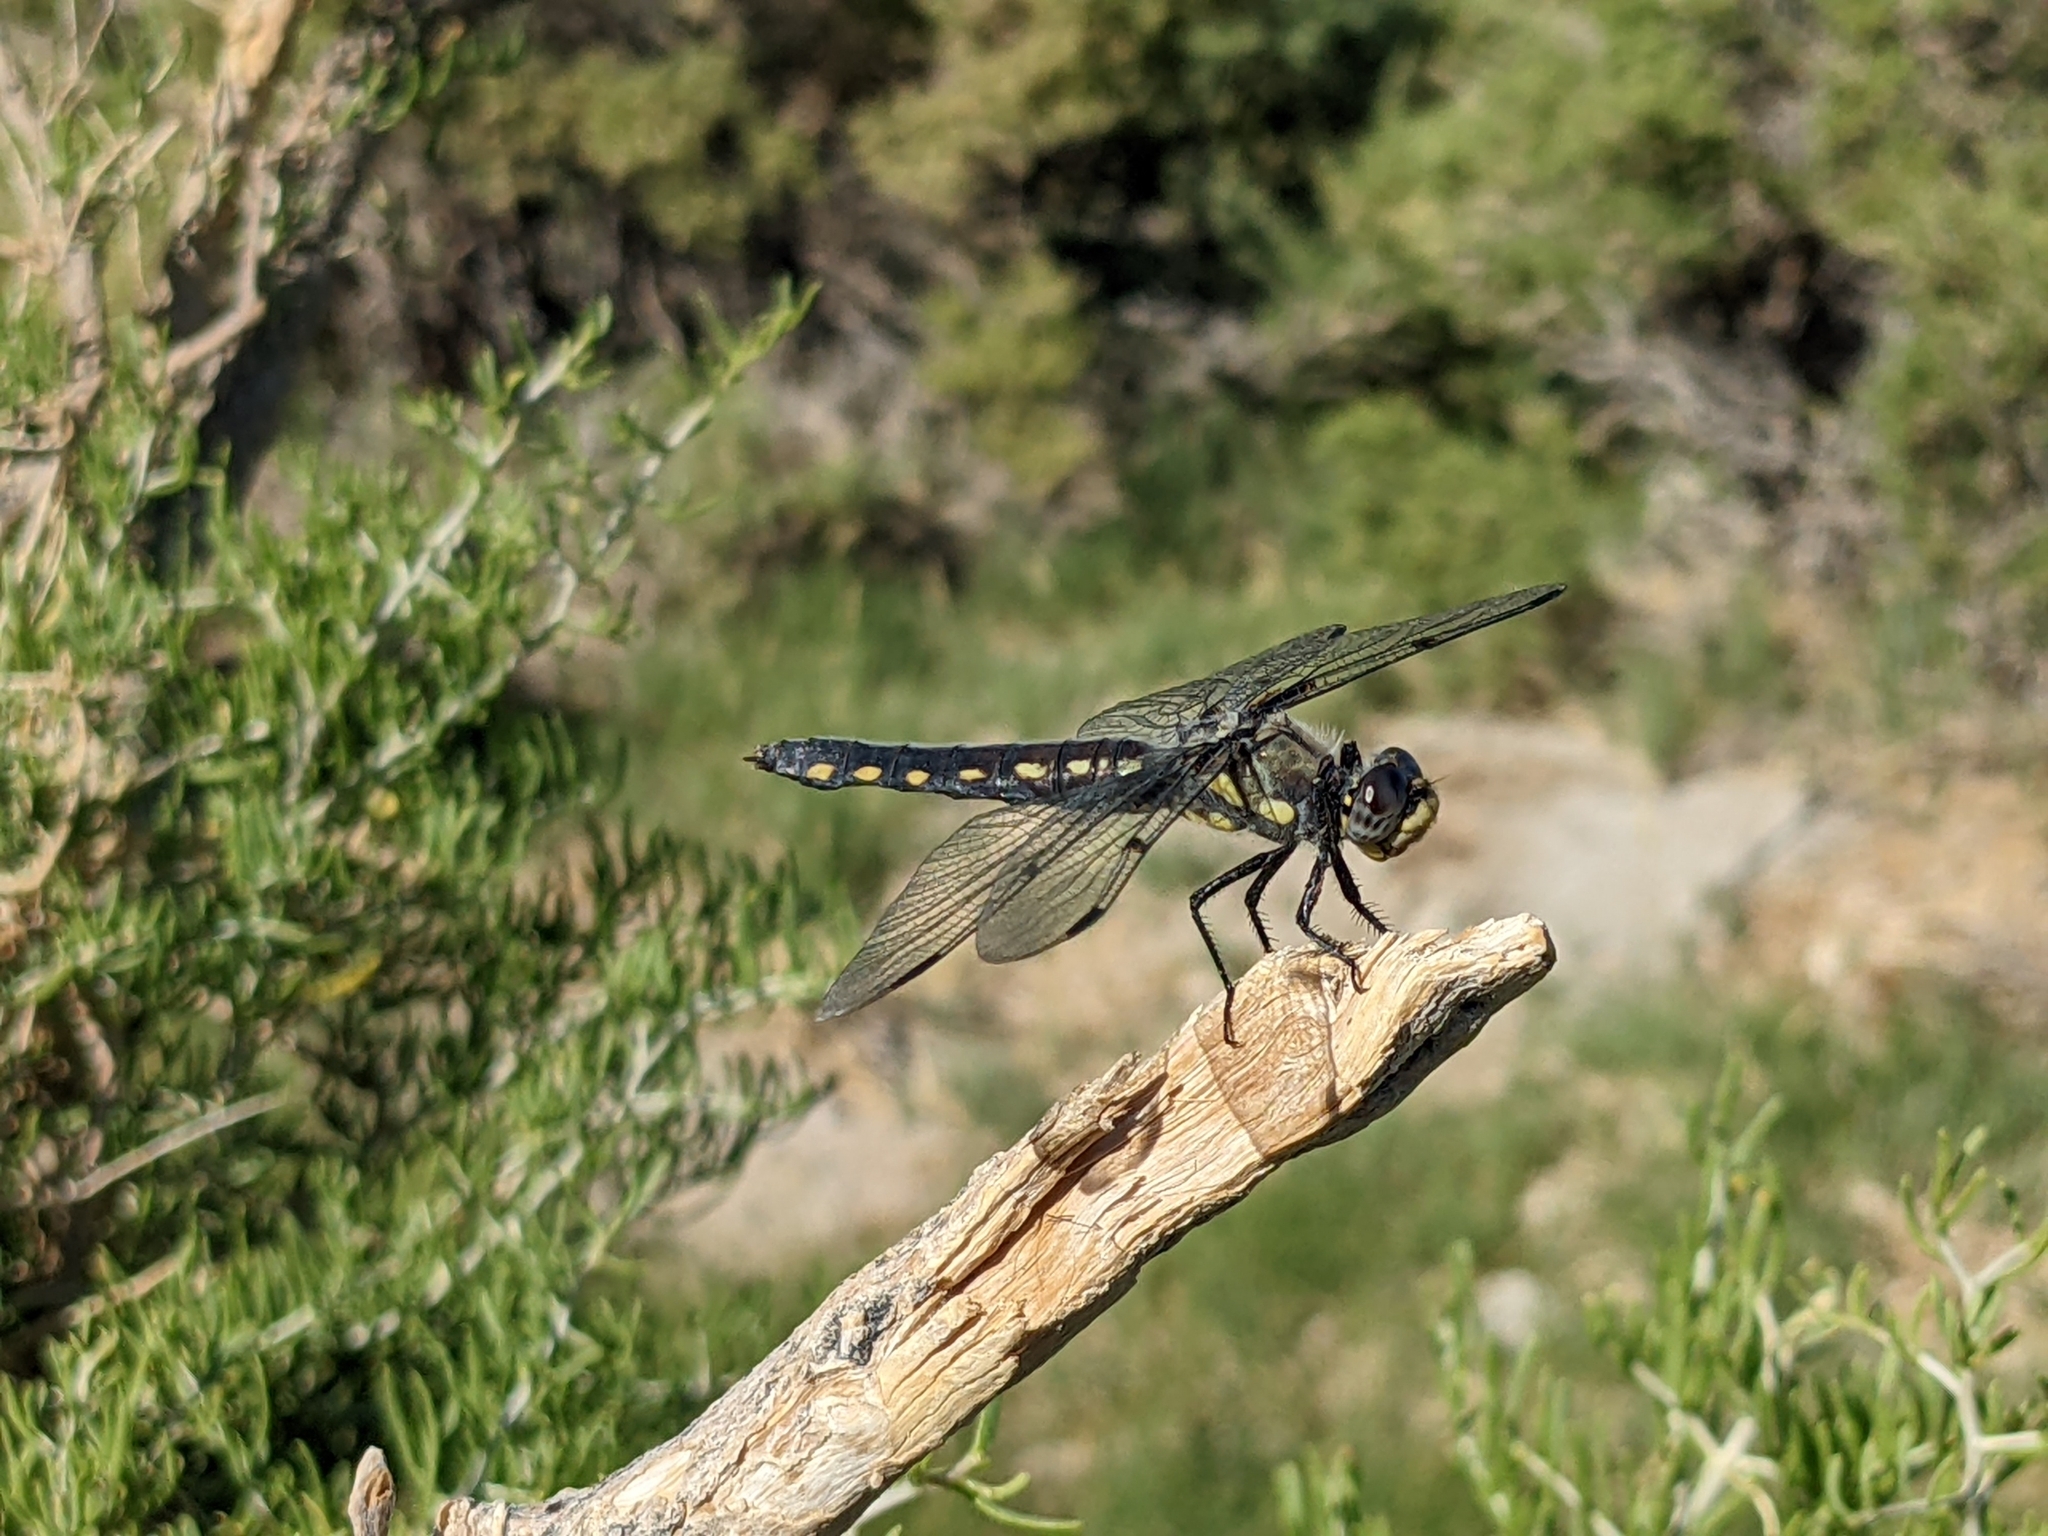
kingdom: Animalia
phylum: Arthropoda
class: Insecta
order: Odonata
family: Libellulidae
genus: Libellula
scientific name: Libellula nodisticta
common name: Hoary skimmer
